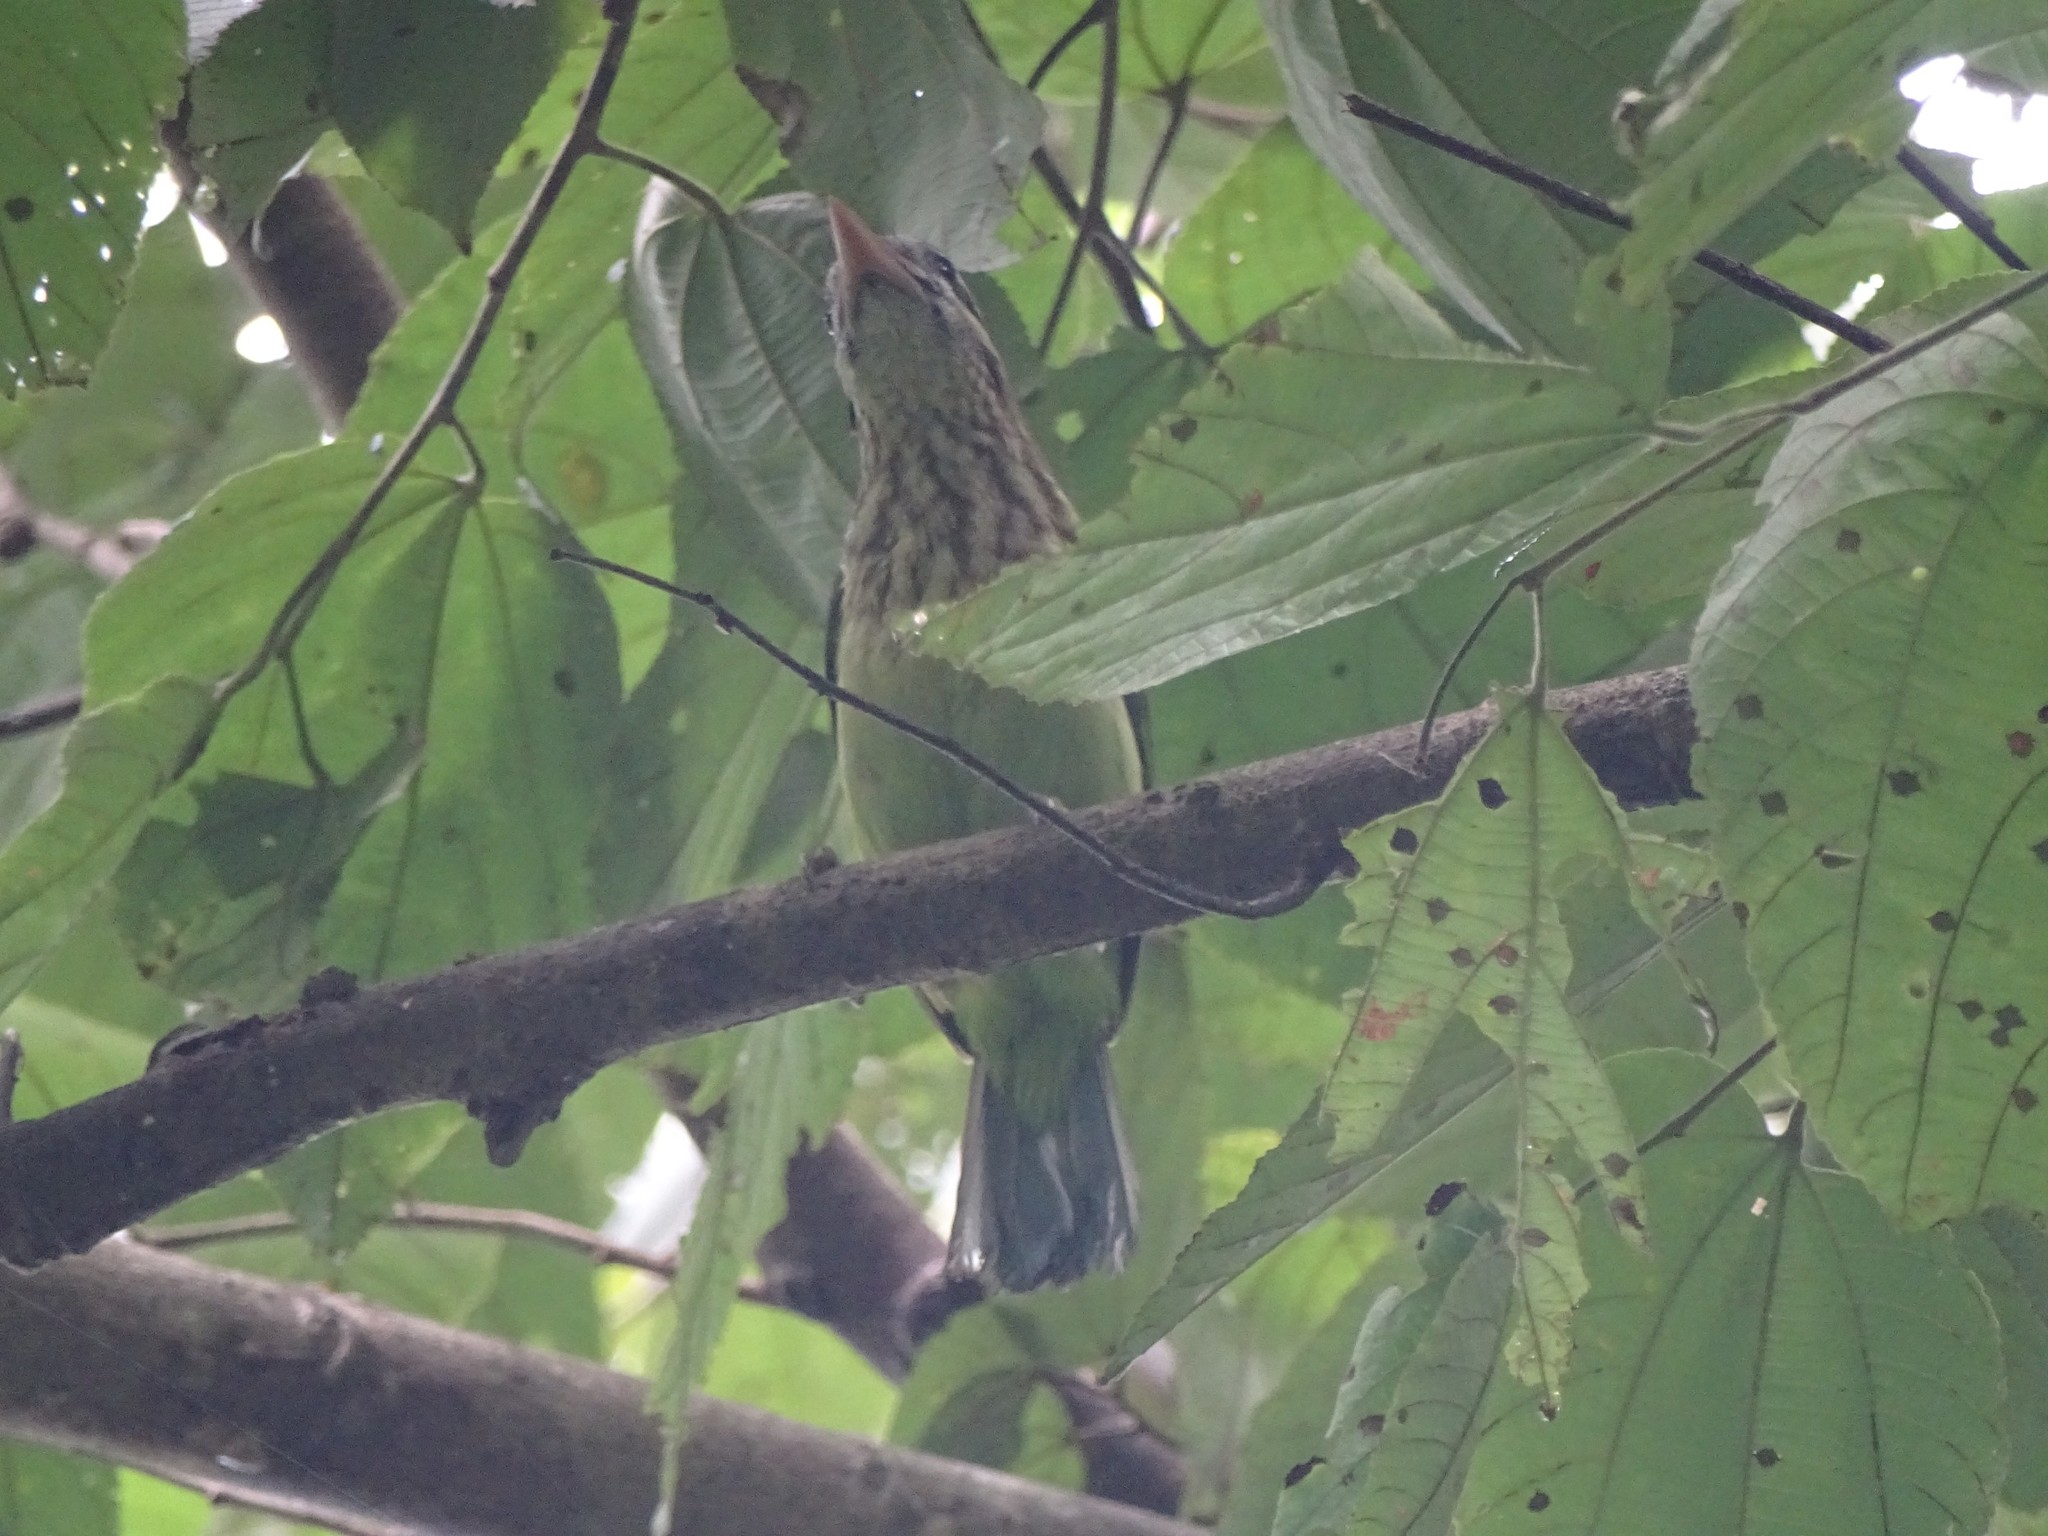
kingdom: Animalia
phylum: Chordata
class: Aves
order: Piciformes
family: Megalaimidae
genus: Psilopogon
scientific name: Psilopogon viridis
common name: White-cheeked barbet
